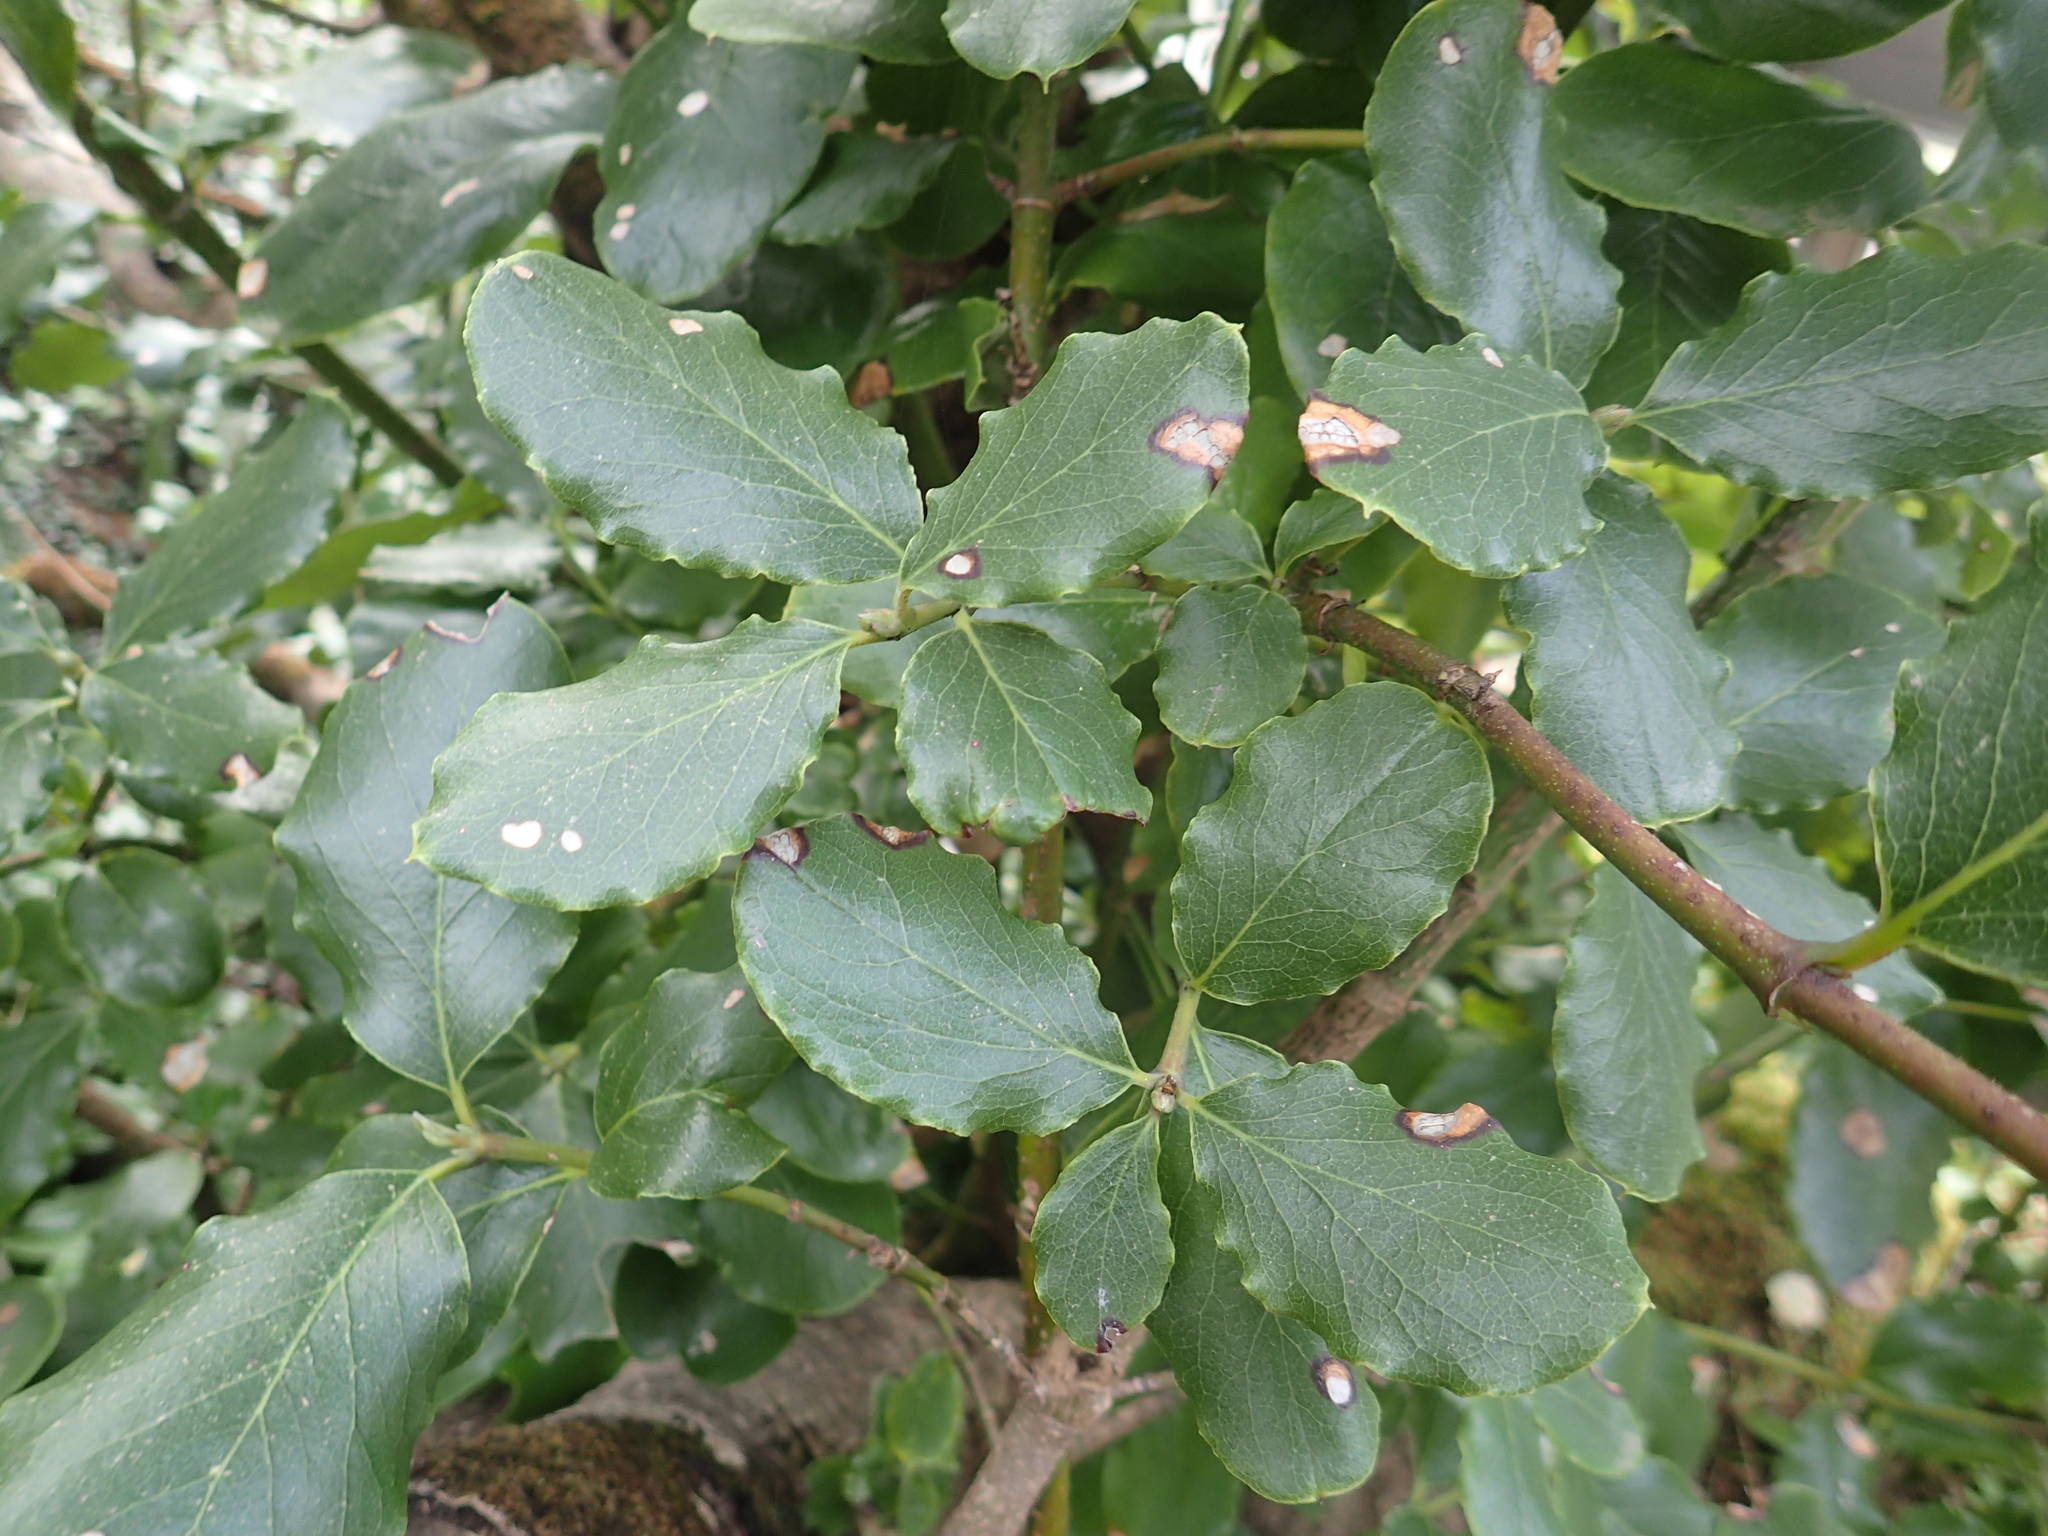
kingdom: Plantae
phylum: Tracheophyta
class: Magnoliopsida
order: Garryales
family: Garryaceae
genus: Garrya
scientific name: Garrya elliptica
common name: Silk-tassel
